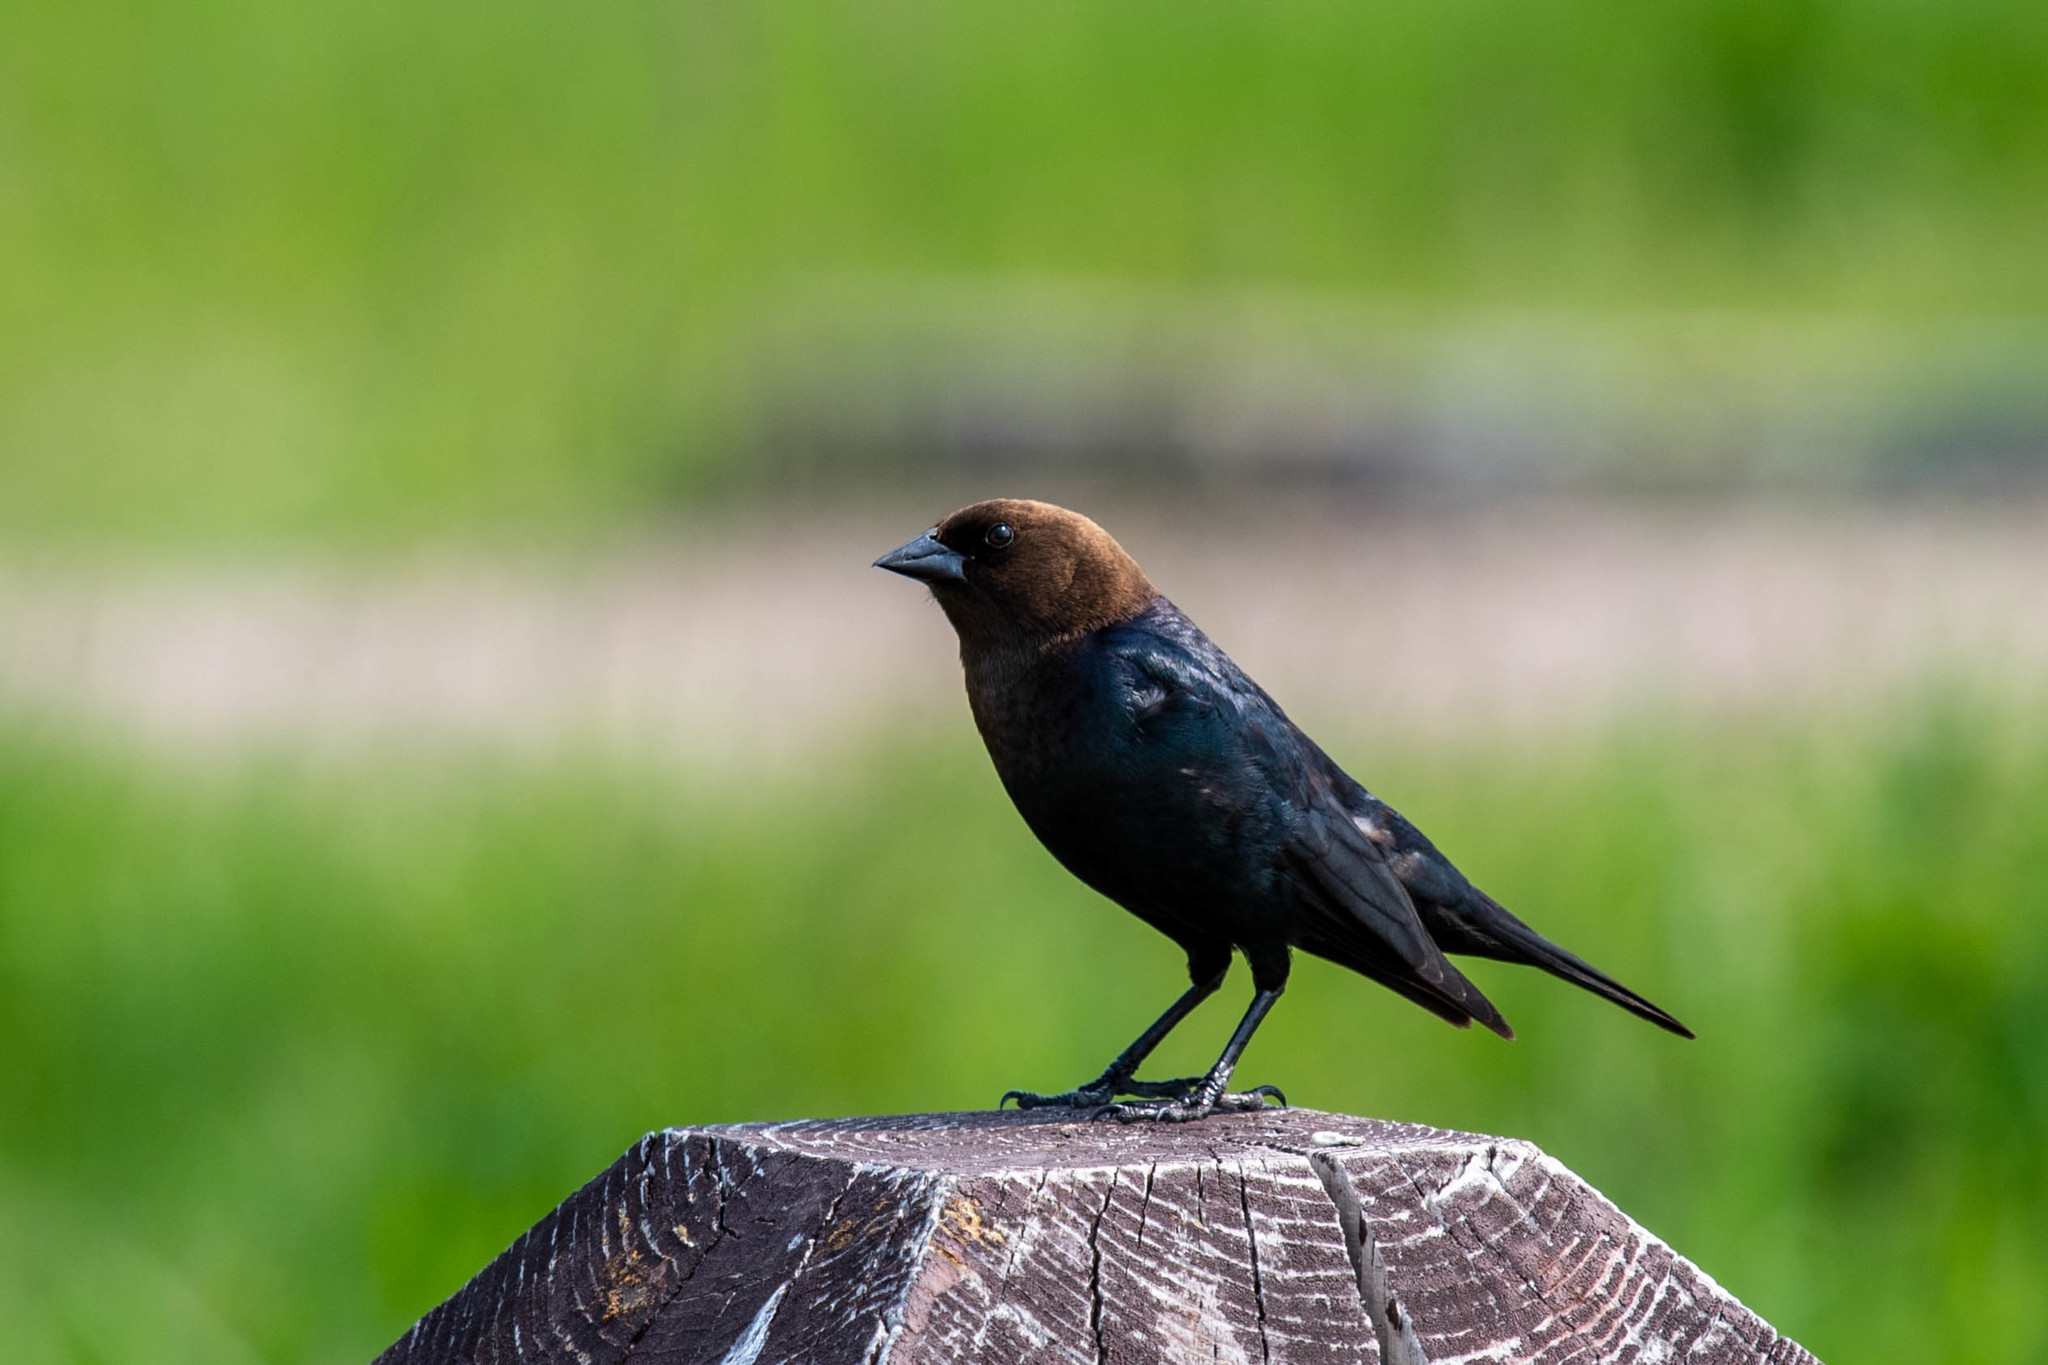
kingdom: Animalia
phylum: Chordata
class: Aves
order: Passeriformes
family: Icteridae
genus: Molothrus
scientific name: Molothrus ater
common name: Brown-headed cowbird
